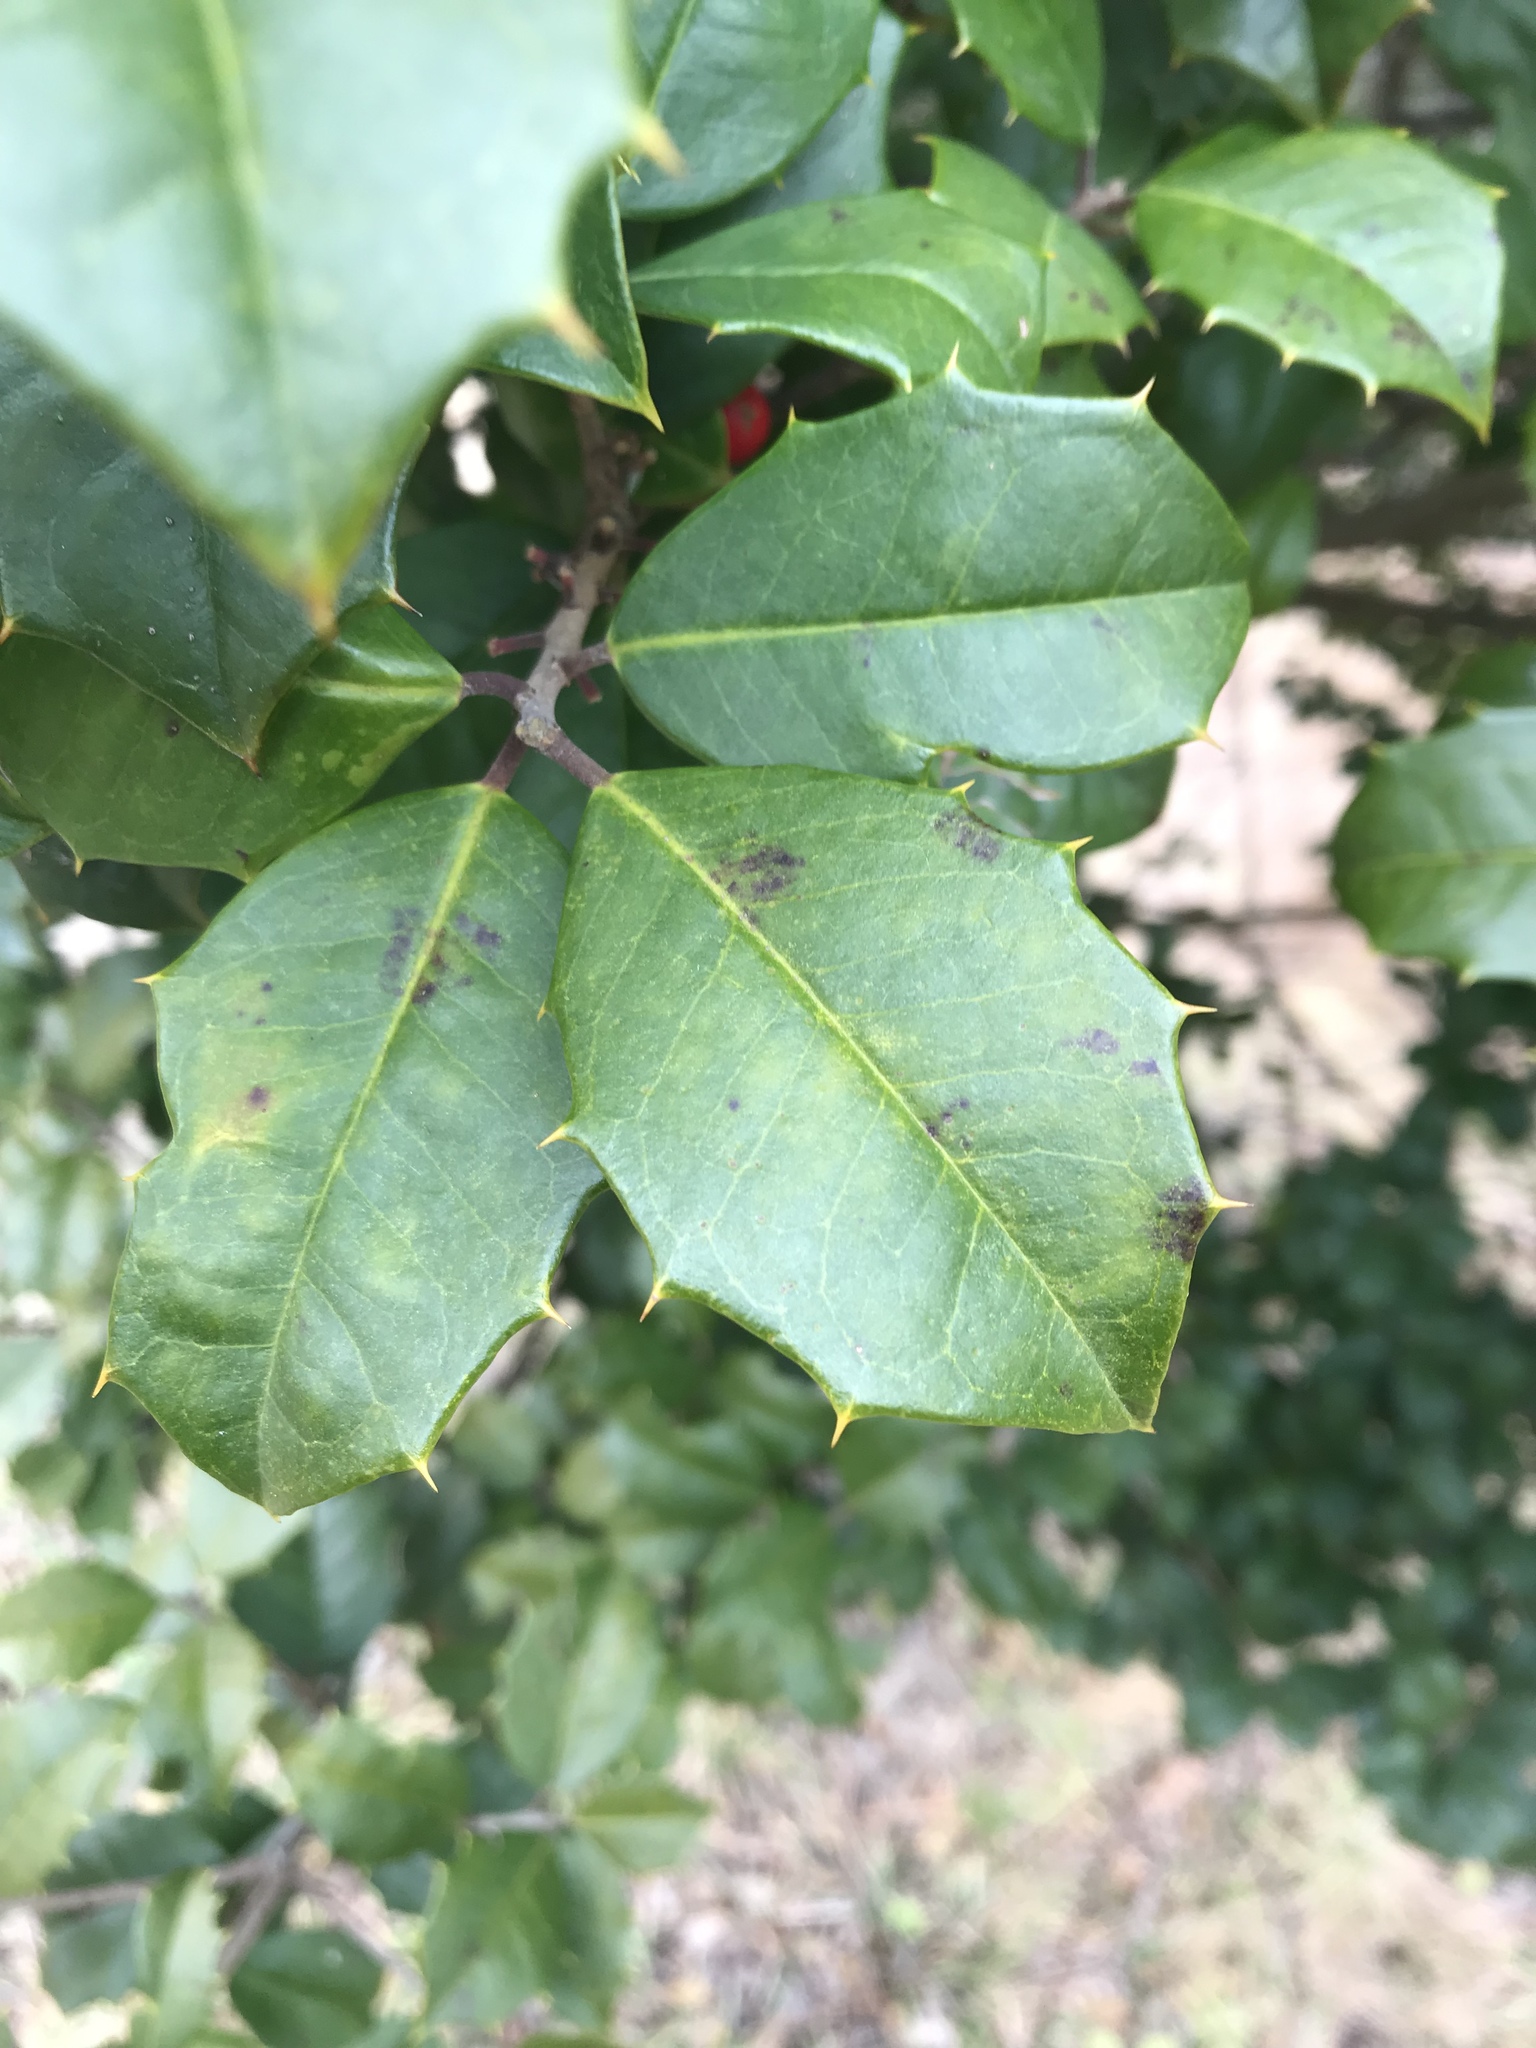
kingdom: Plantae
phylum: Tracheophyta
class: Magnoliopsida
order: Aquifoliales
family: Aquifoliaceae
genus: Ilex
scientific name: Ilex opaca
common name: American holly
